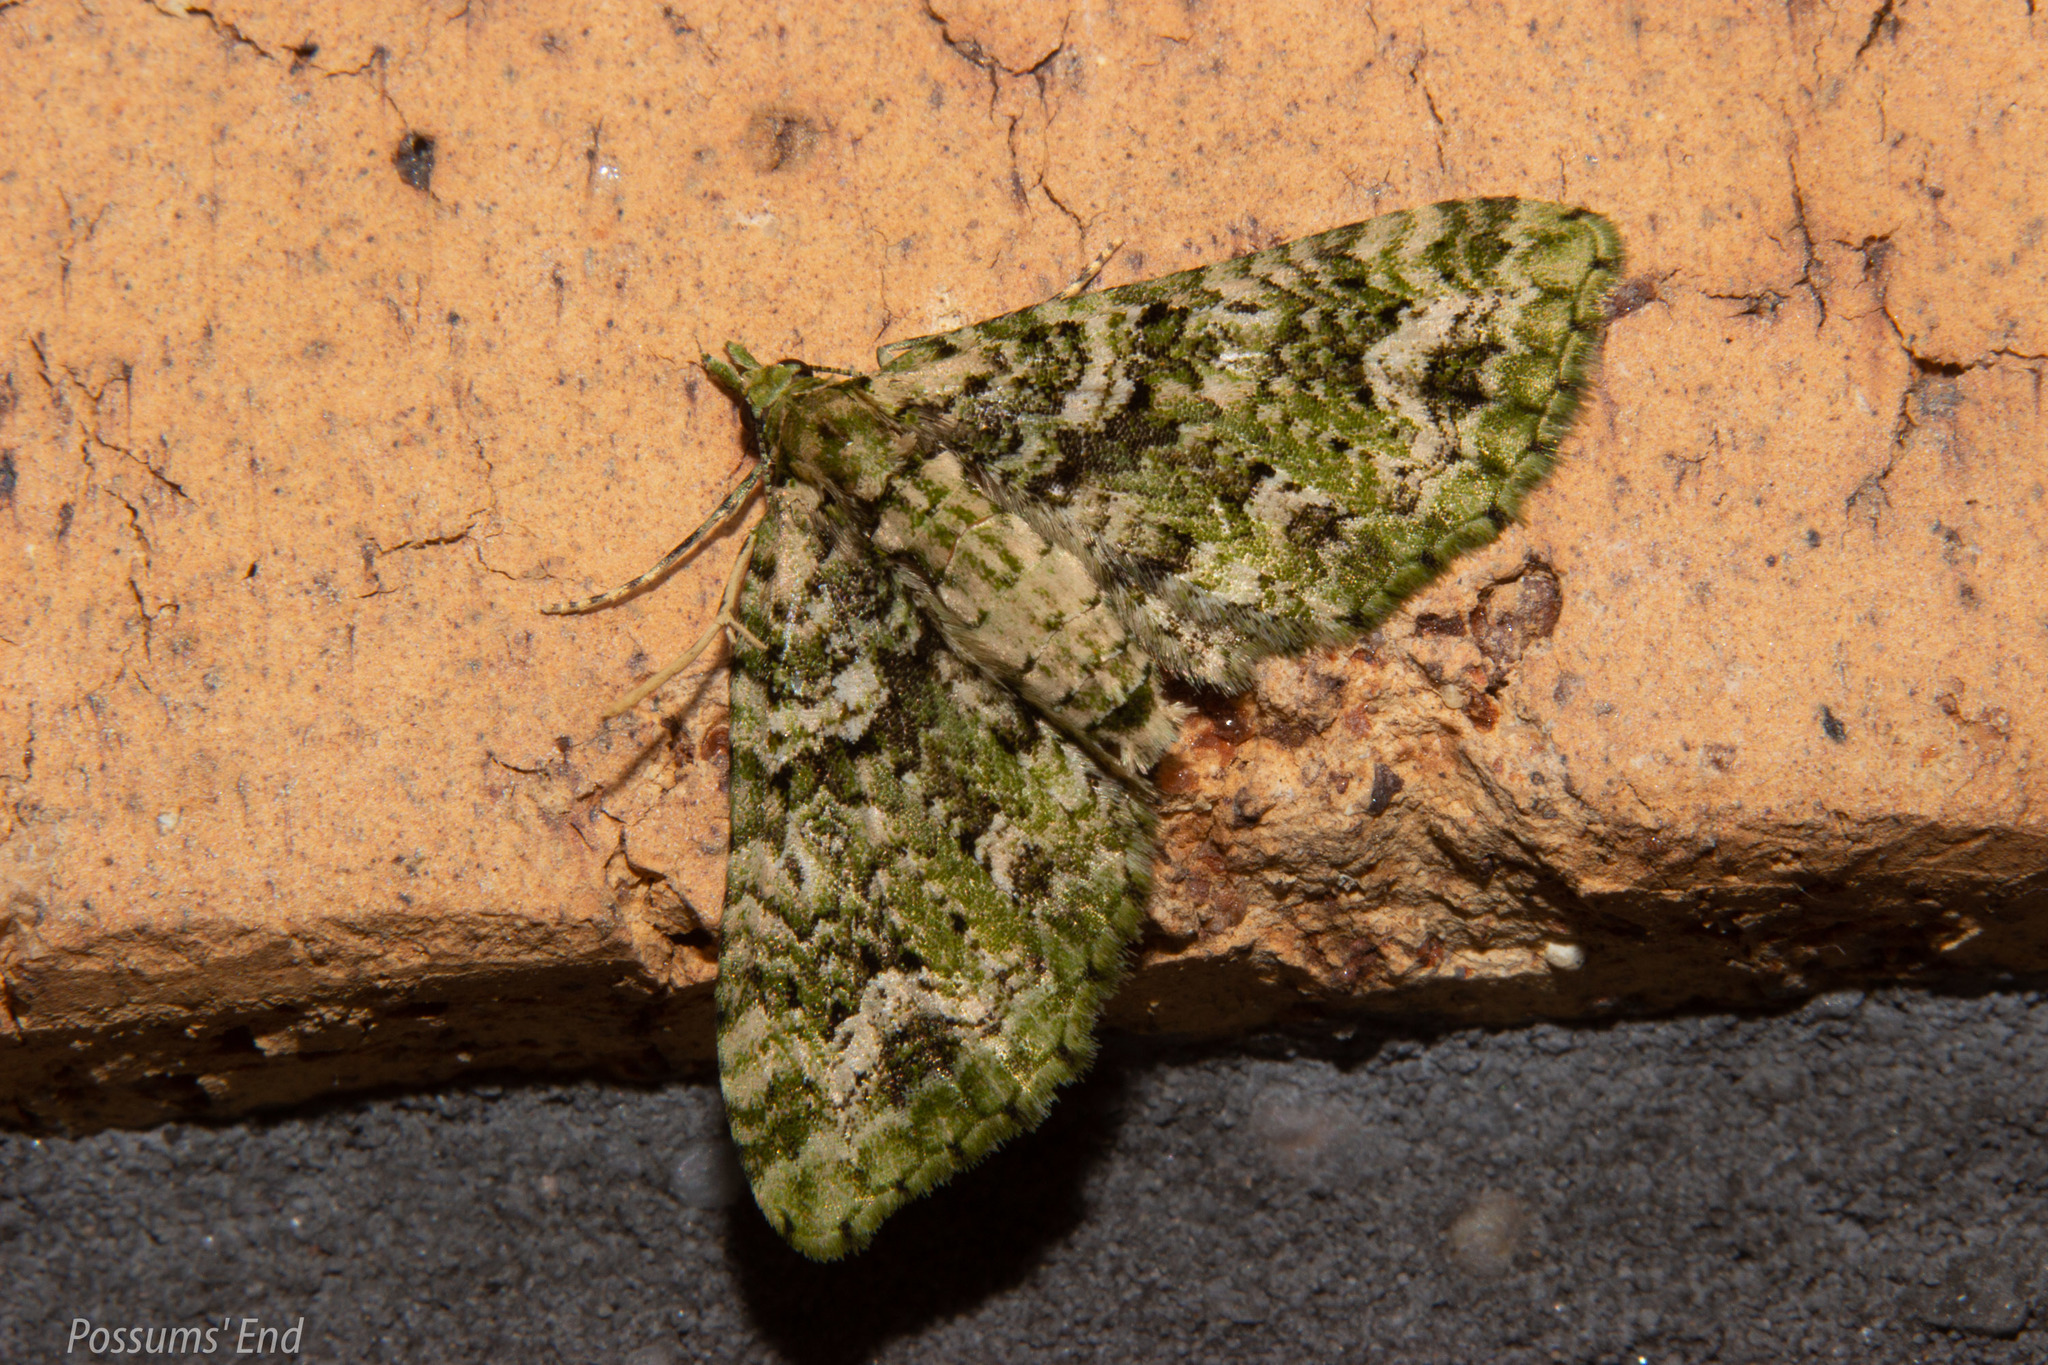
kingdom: Animalia
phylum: Arthropoda
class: Insecta
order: Lepidoptera
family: Geometridae
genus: Pasiphila
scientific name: Pasiphila muscosata
